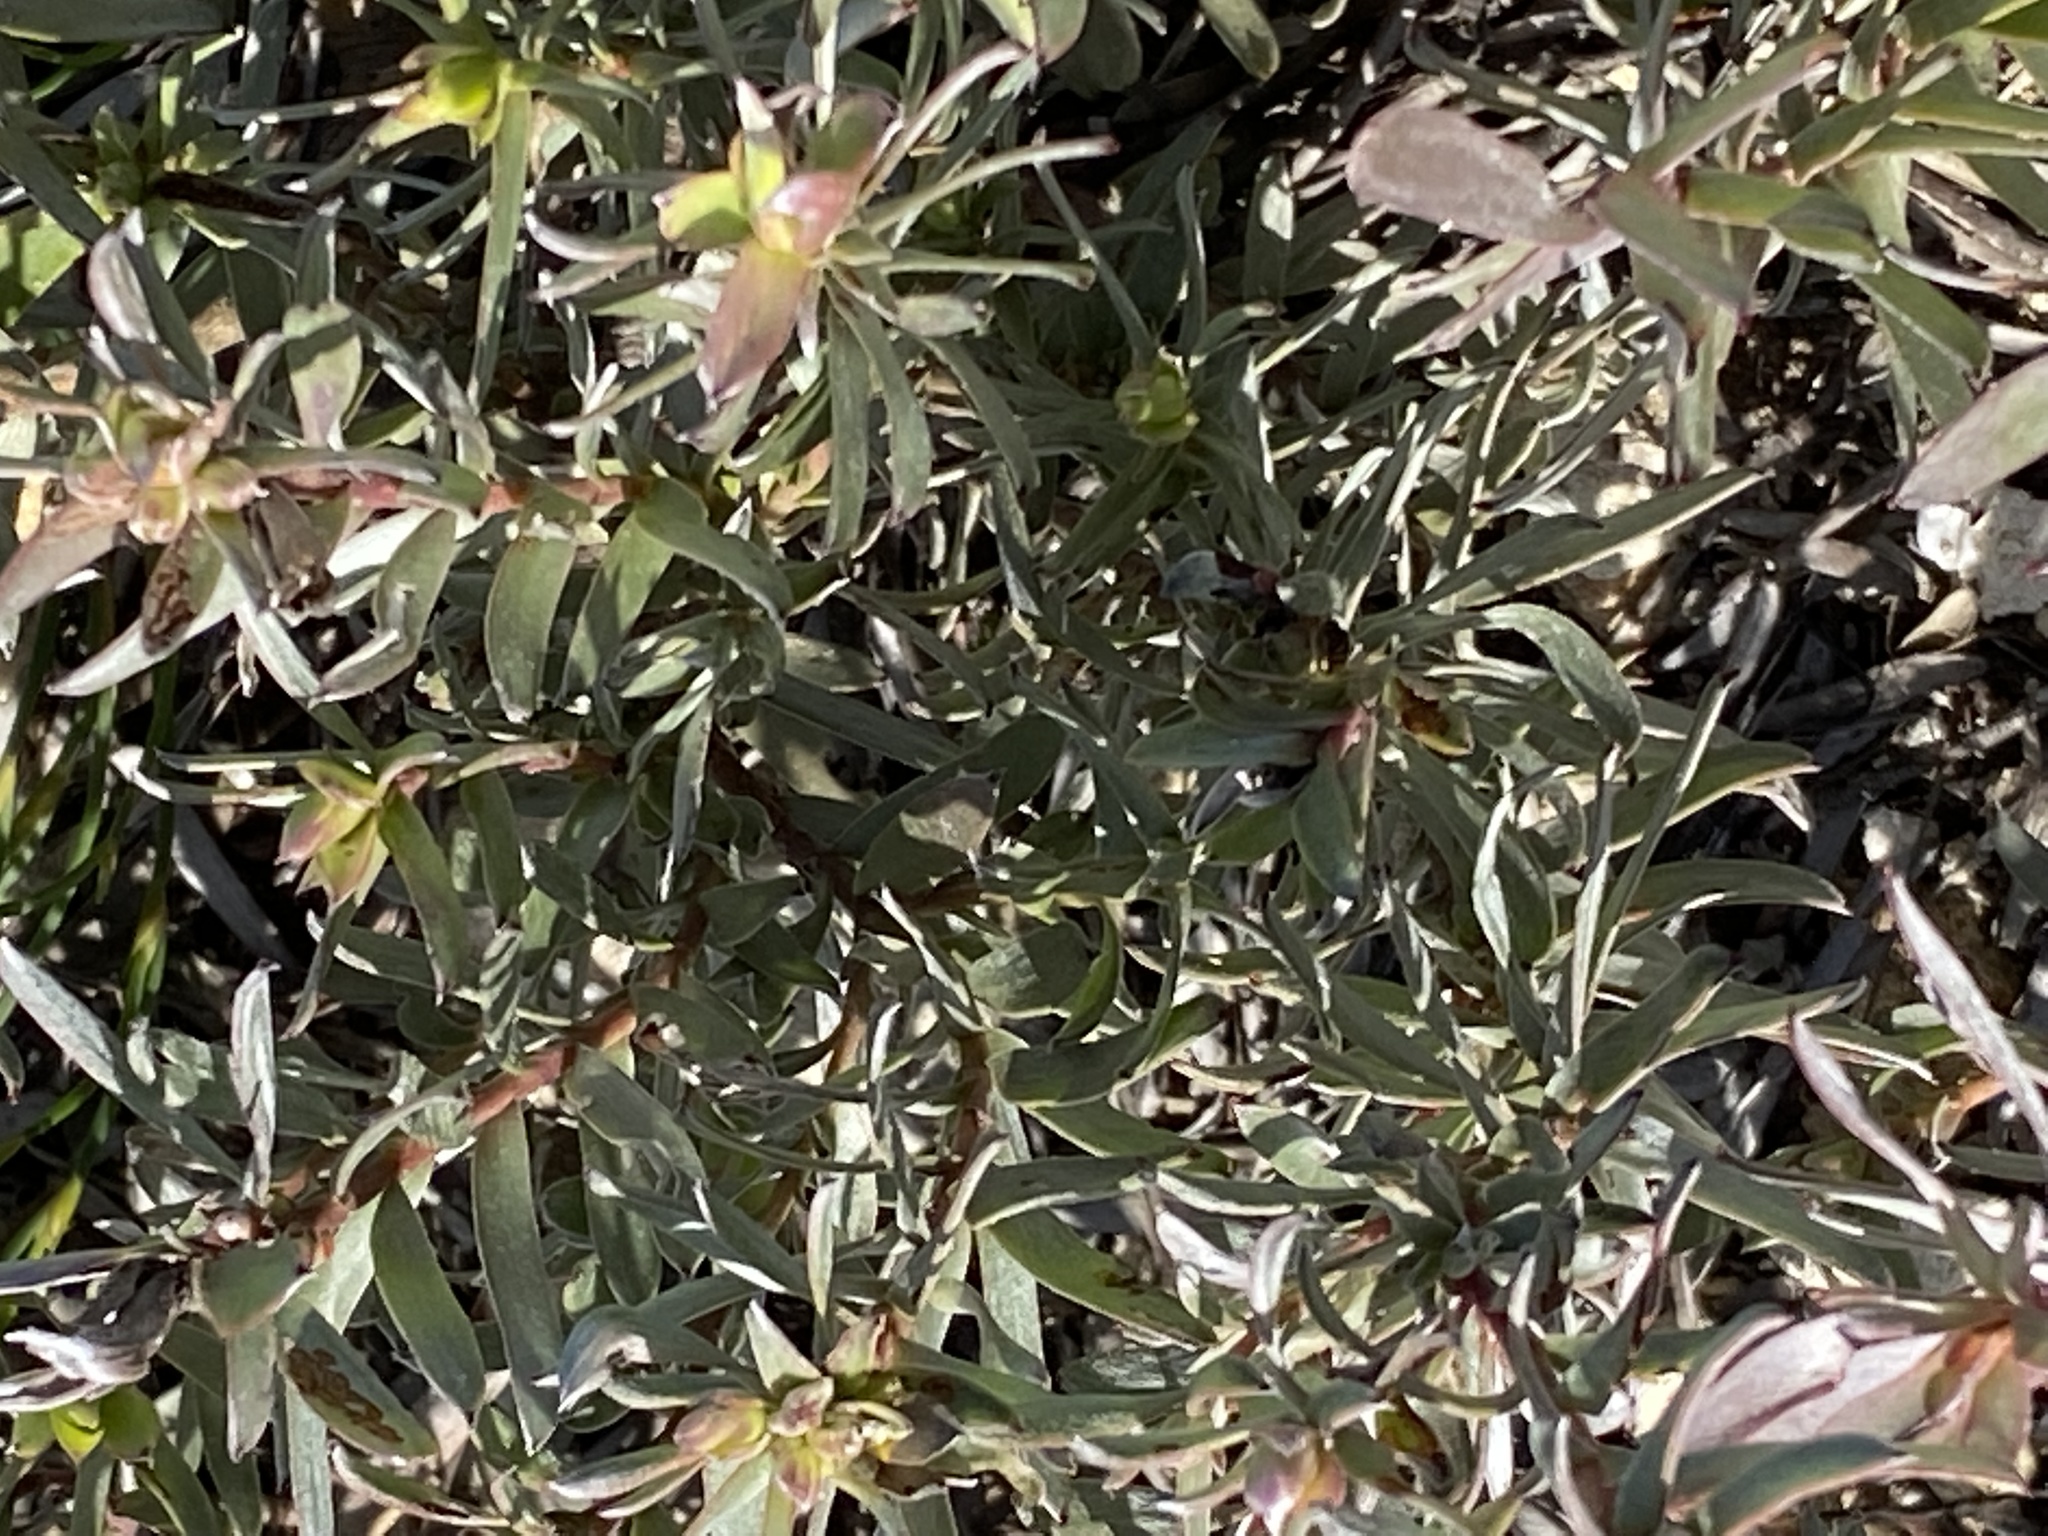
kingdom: Plantae
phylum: Tracheophyta
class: Magnoliopsida
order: Proteales
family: Proteaceae
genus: Leucadendron
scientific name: Leucadendron meridianum
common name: Limestone conebush
